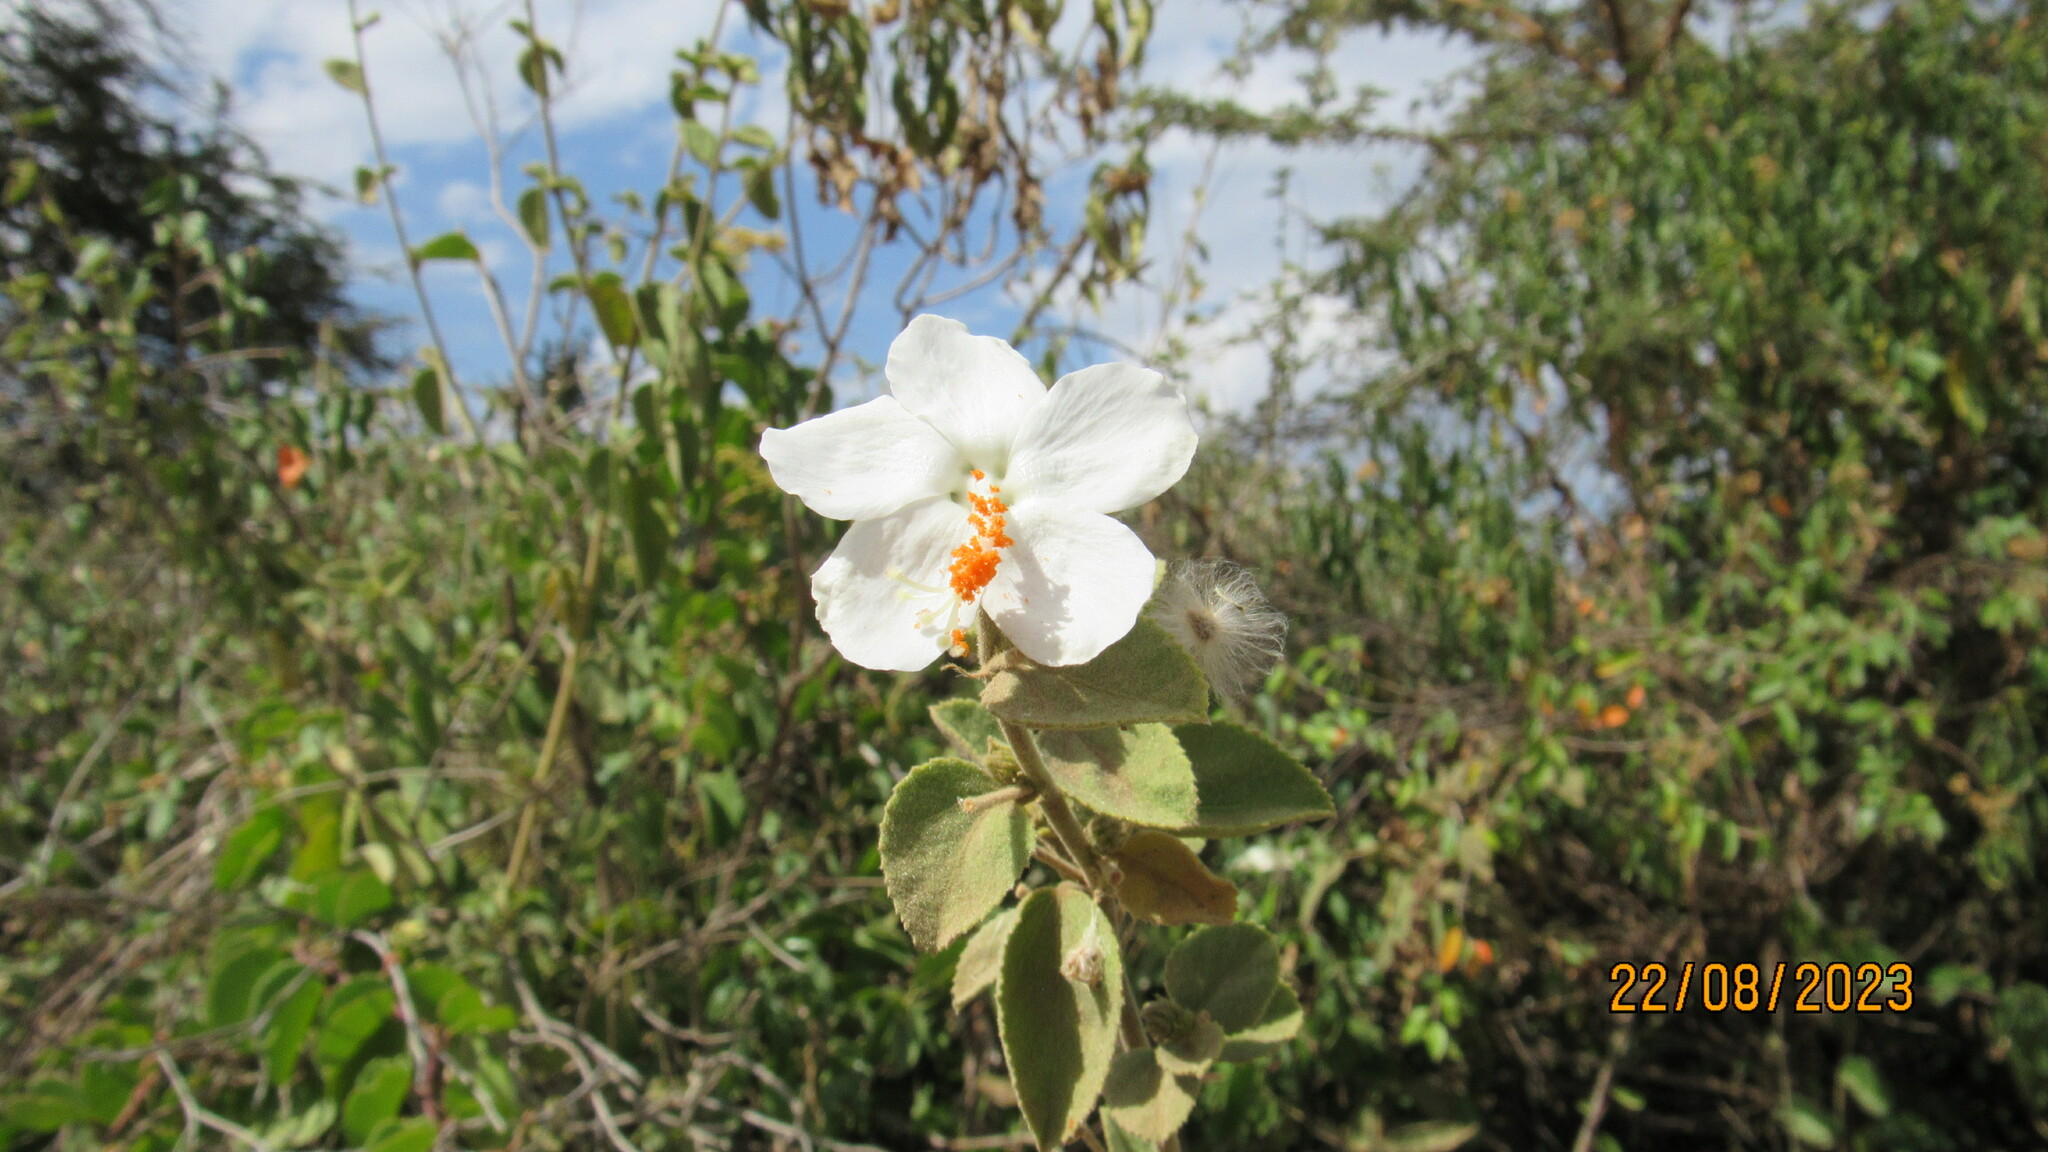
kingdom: Plantae
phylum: Tracheophyta
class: Magnoliopsida
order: Malvales
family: Malvaceae
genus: Hibiscus
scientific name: Hibiscus flavifolius
